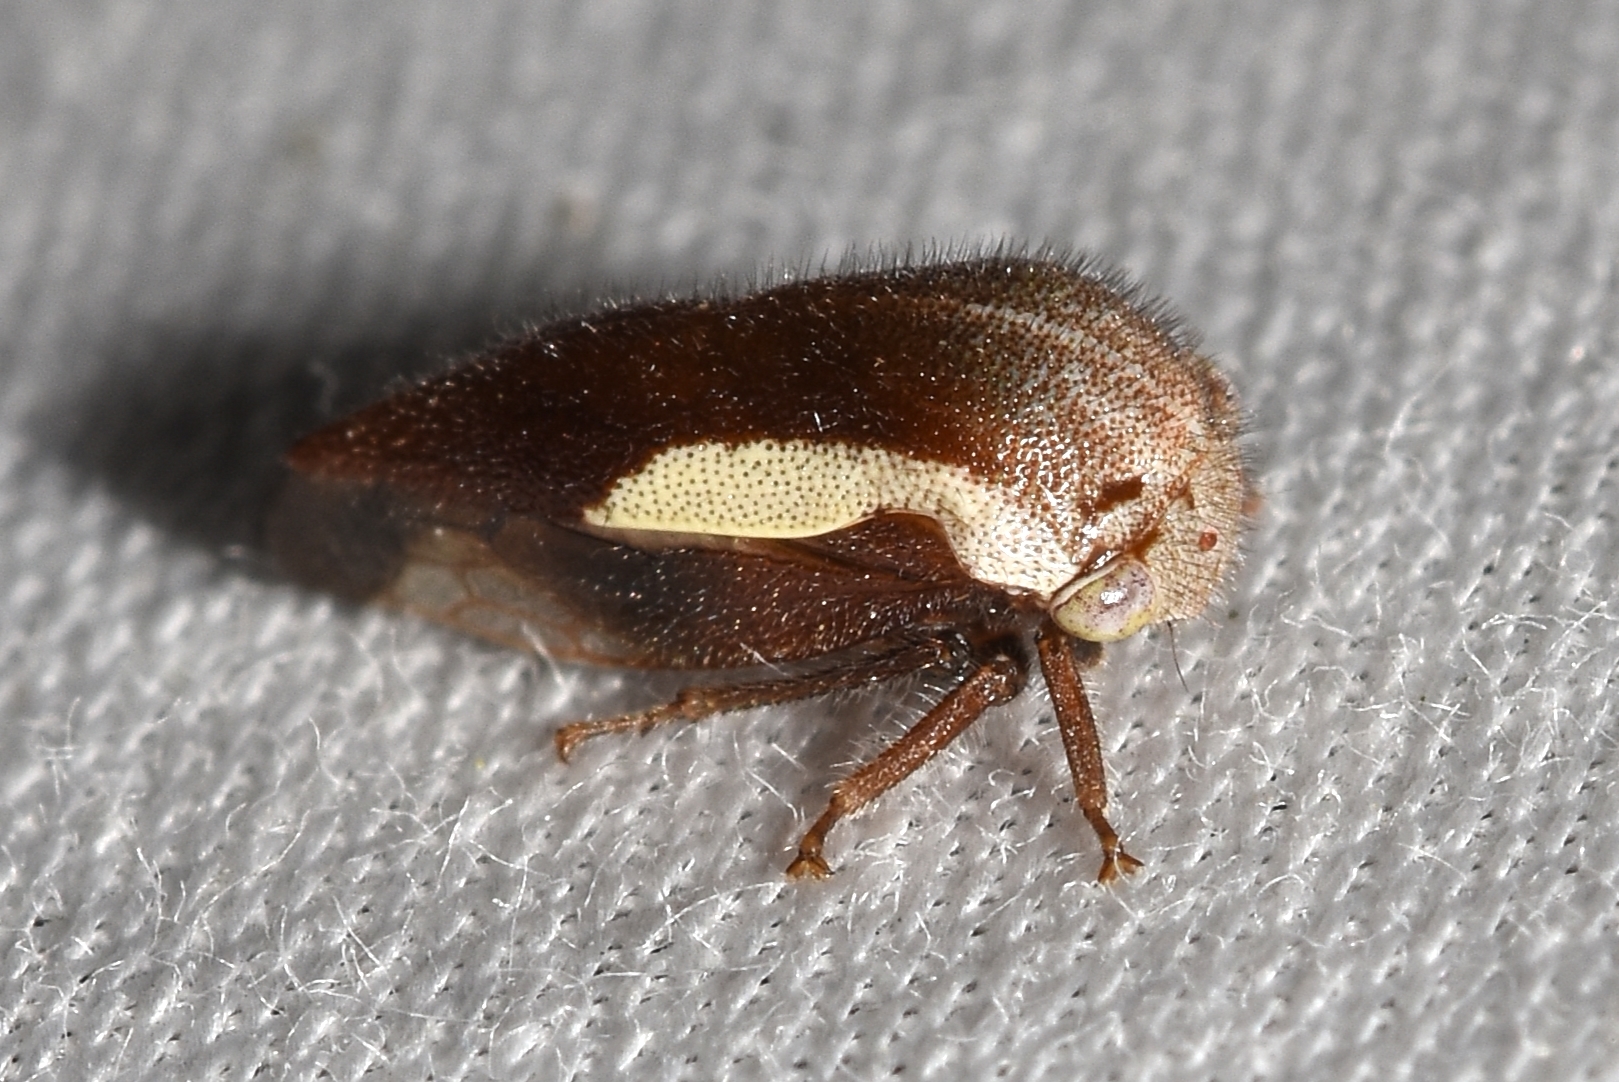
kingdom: Animalia
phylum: Arthropoda
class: Insecta
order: Hemiptera
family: Membracidae
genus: Ophiderma
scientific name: Ophiderma flavicephala
